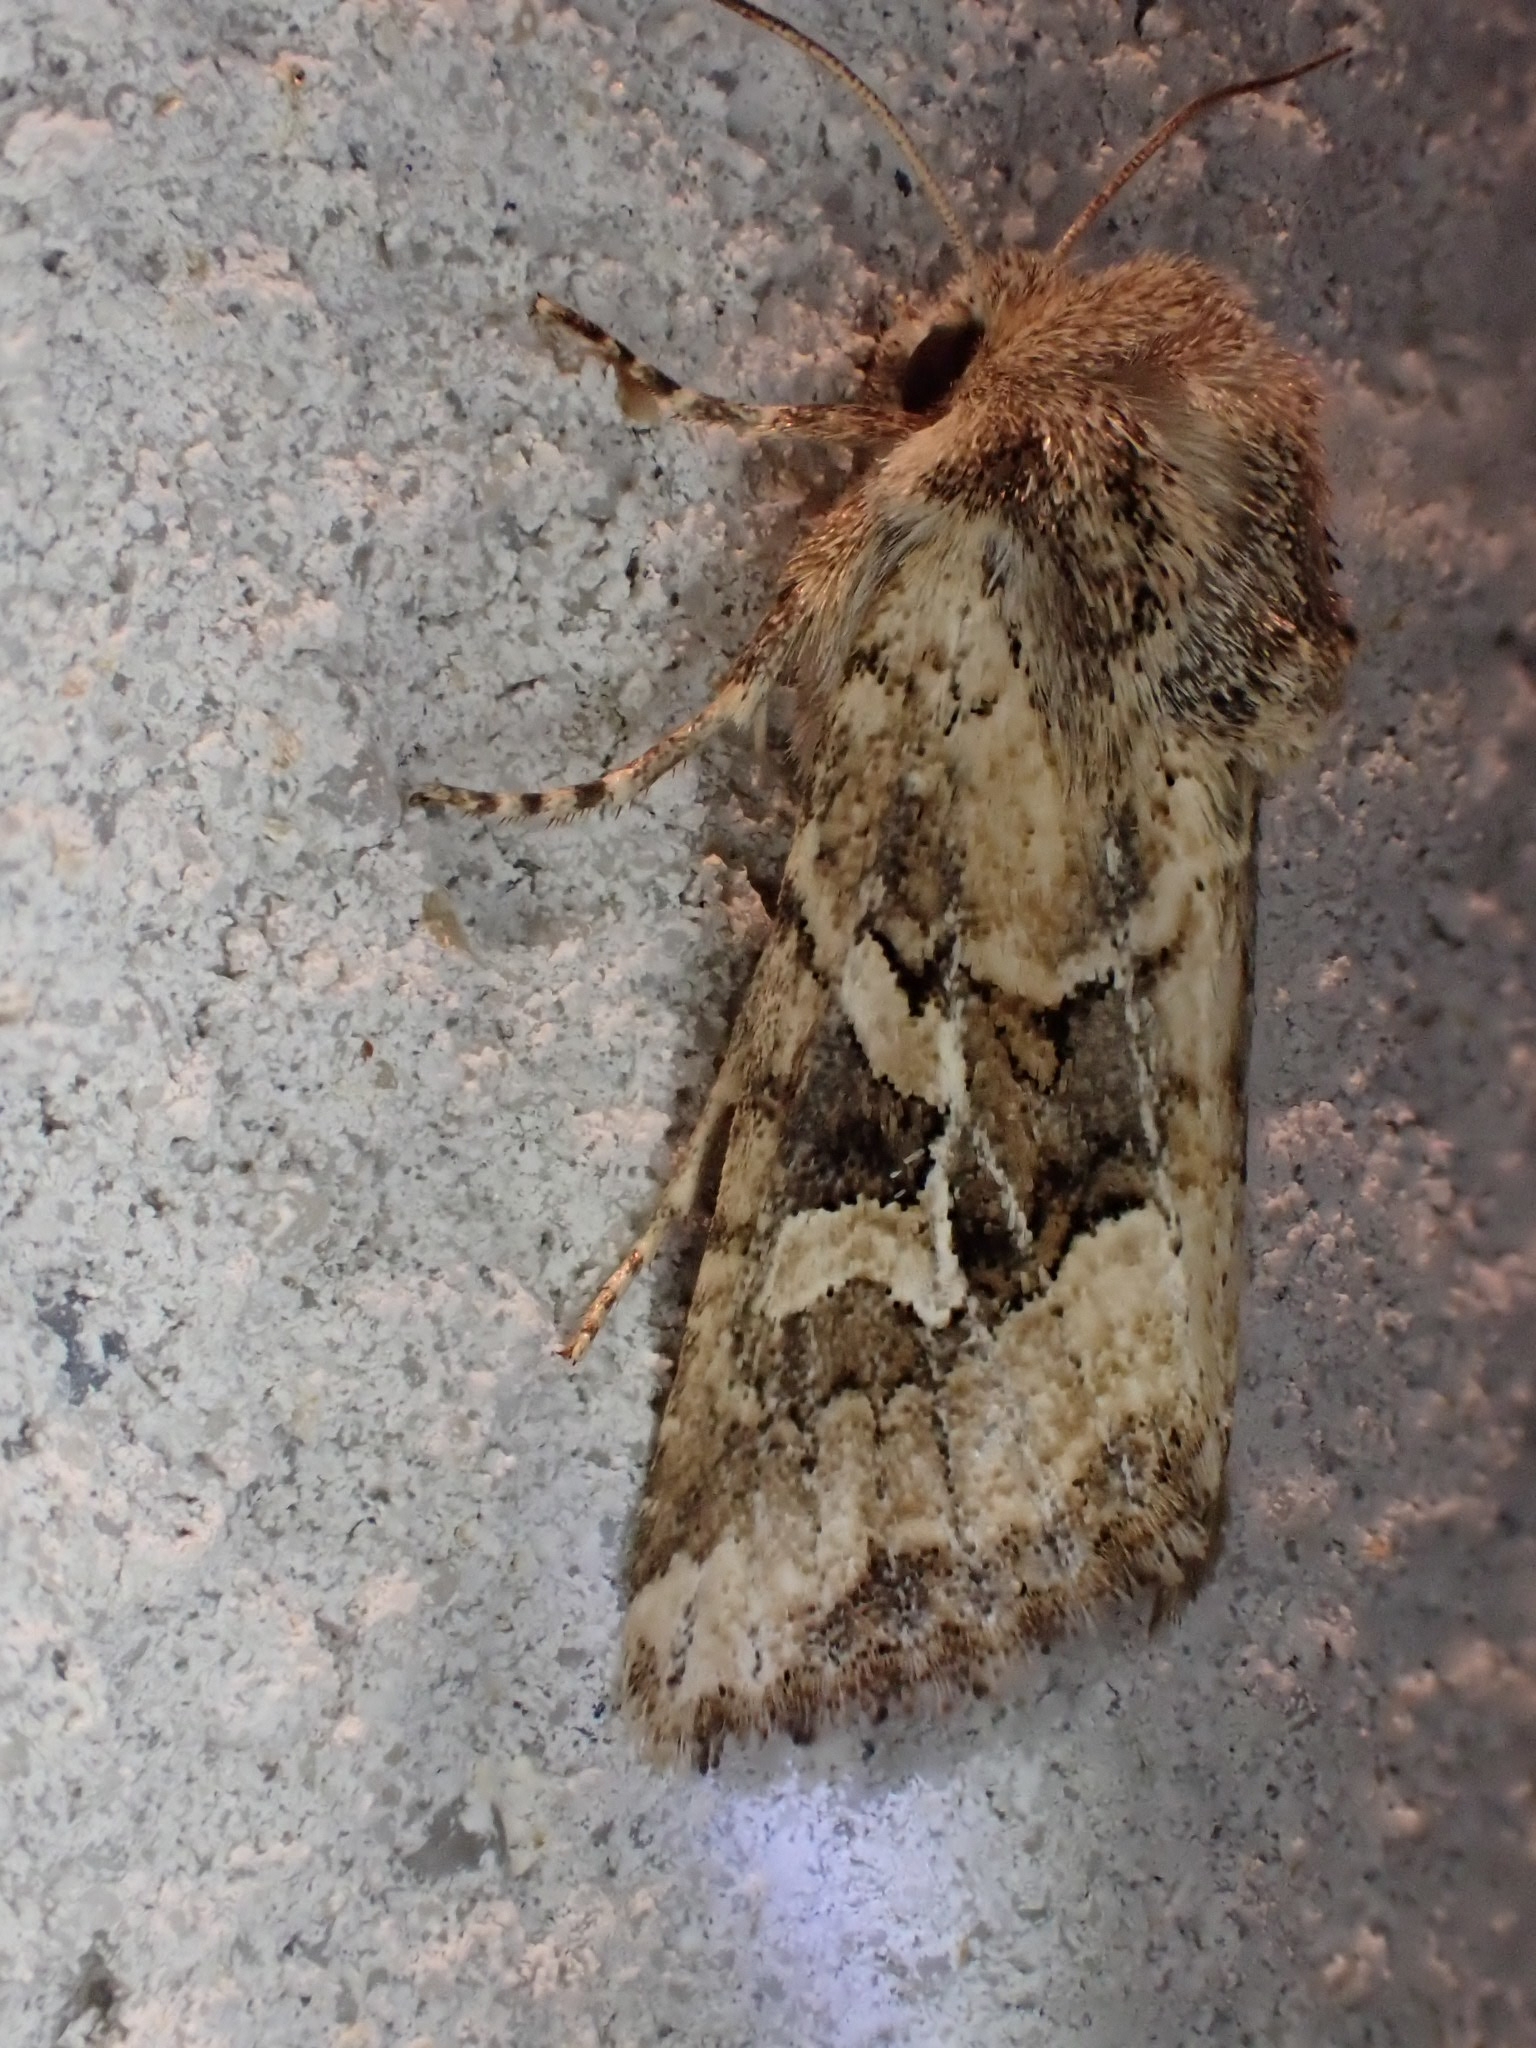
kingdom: Animalia
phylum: Arthropoda
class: Insecta
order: Lepidoptera
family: Noctuidae
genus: Luperina
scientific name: Luperina dumerilii
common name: Dumeril's rustic
